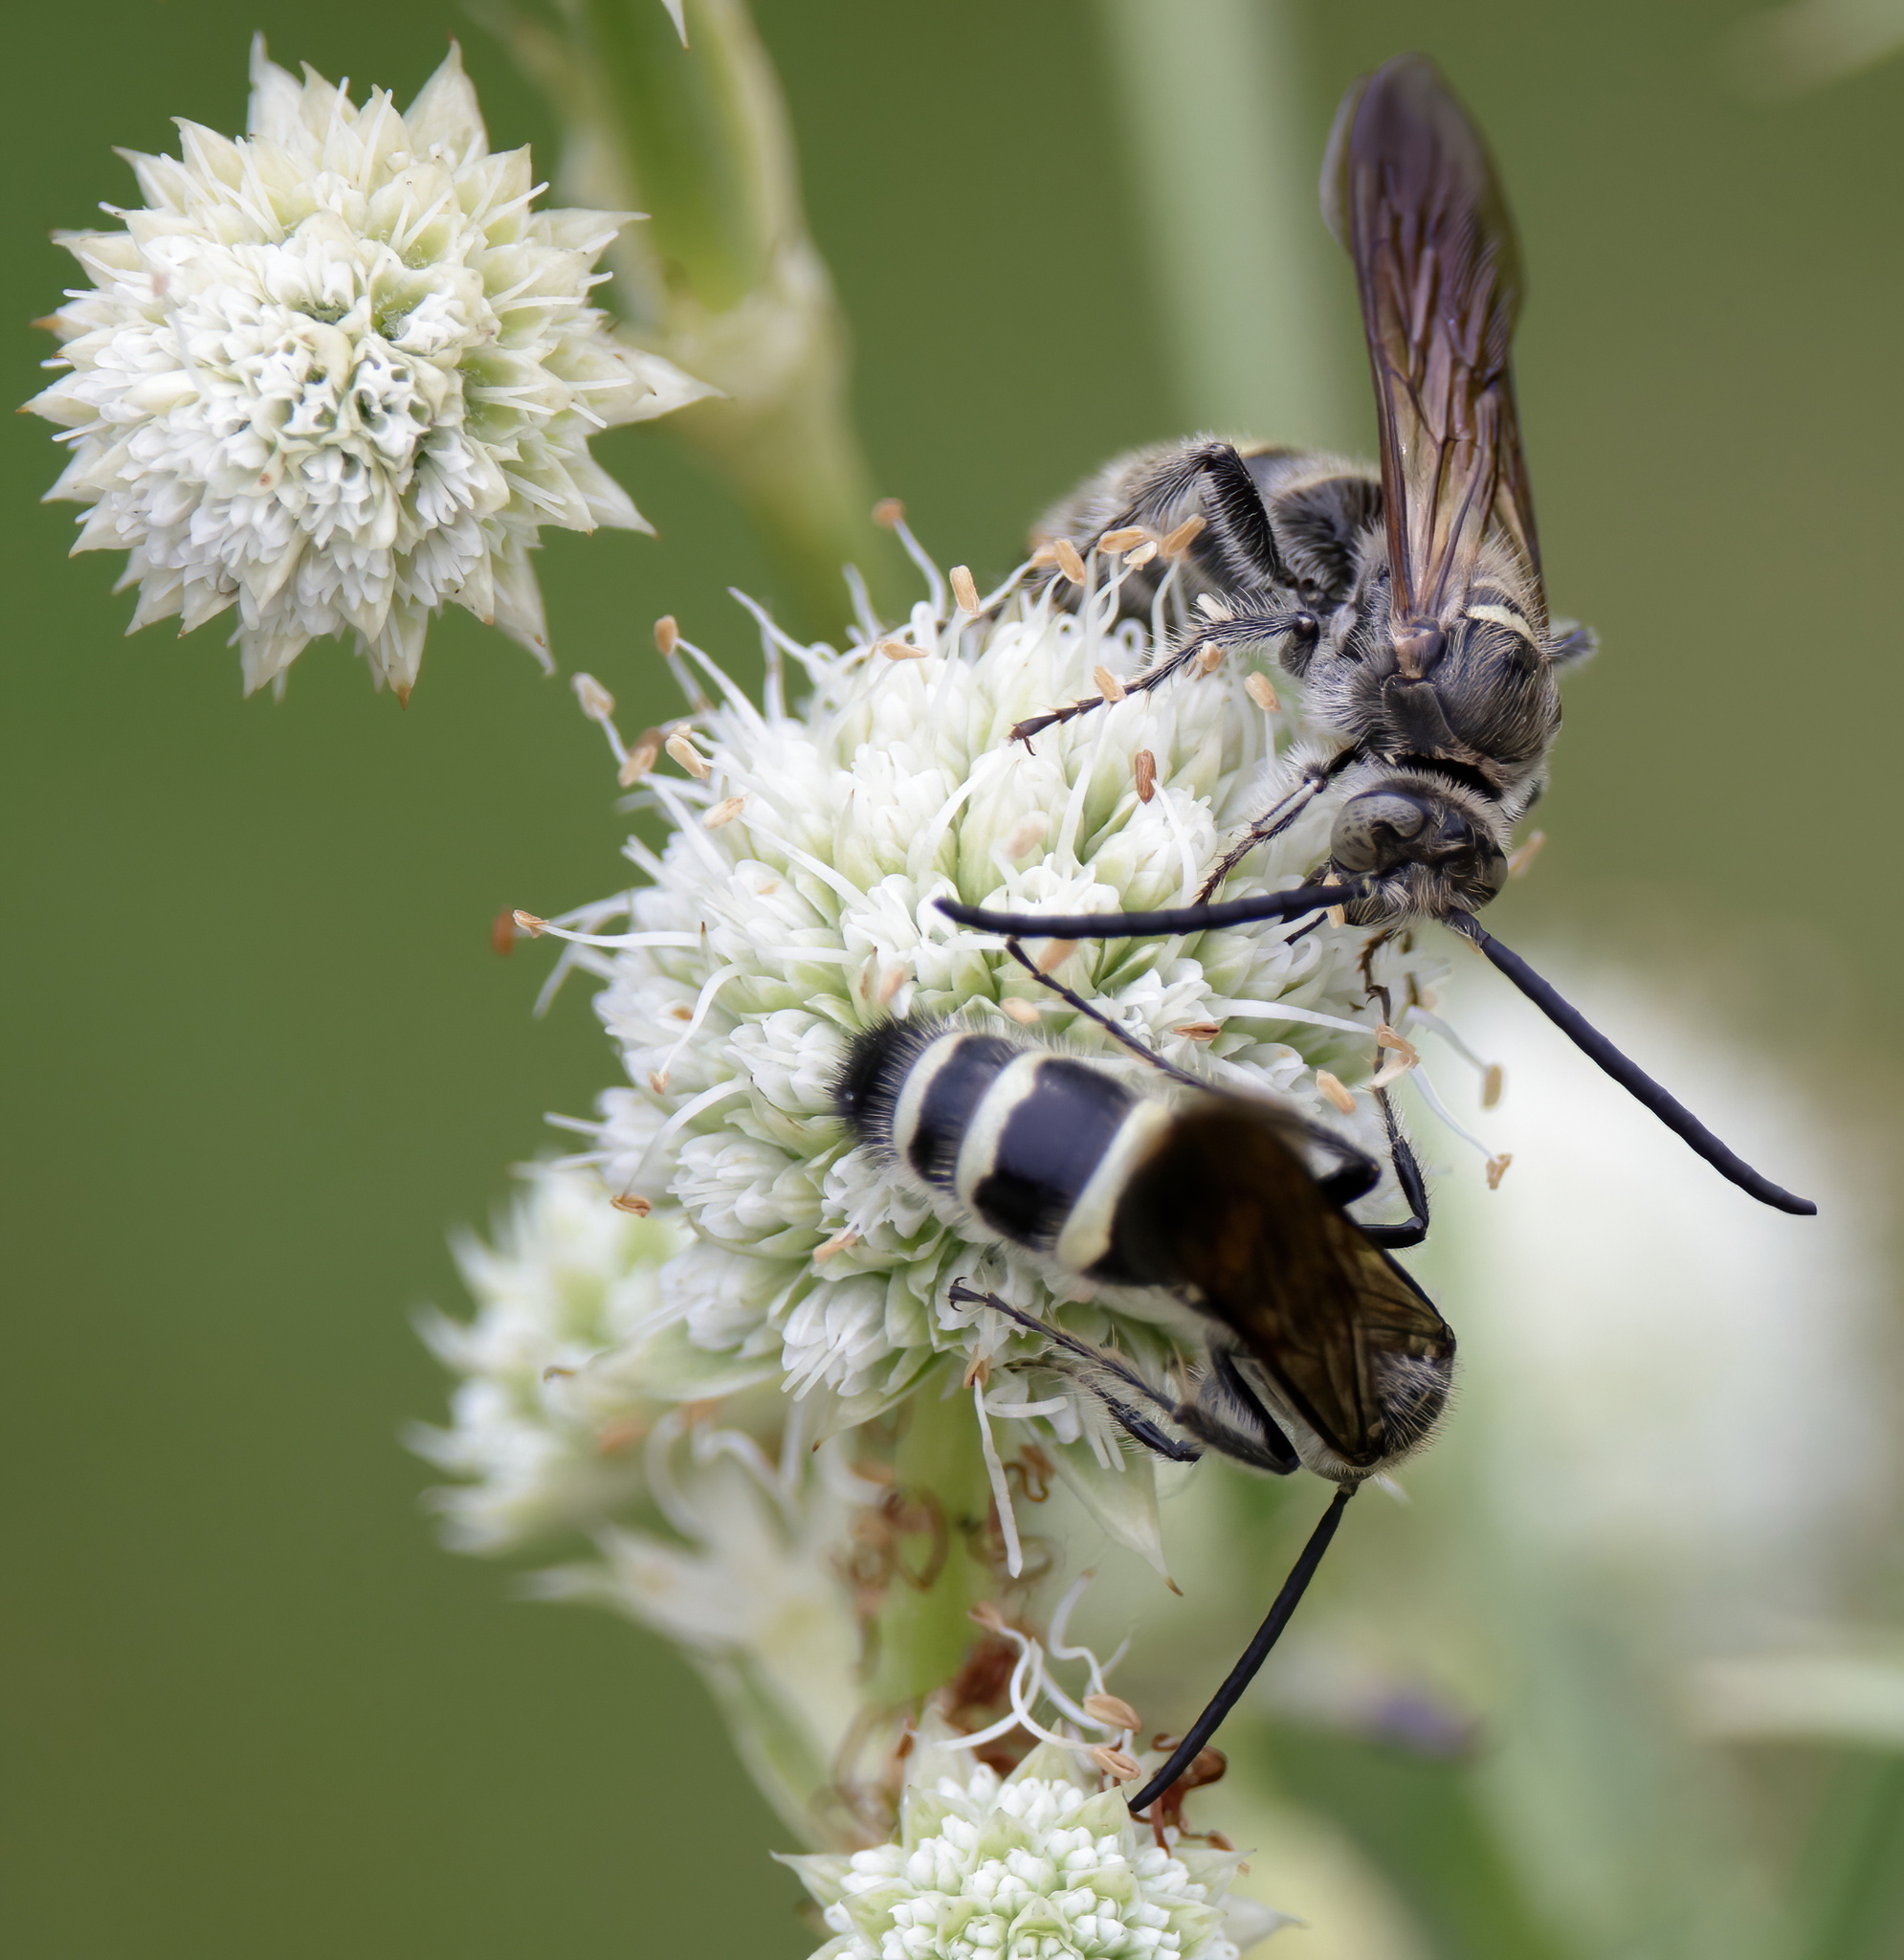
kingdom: Animalia
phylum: Arthropoda
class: Insecta
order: Hymenoptera
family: Scoliidae
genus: Dielis
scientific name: Dielis
